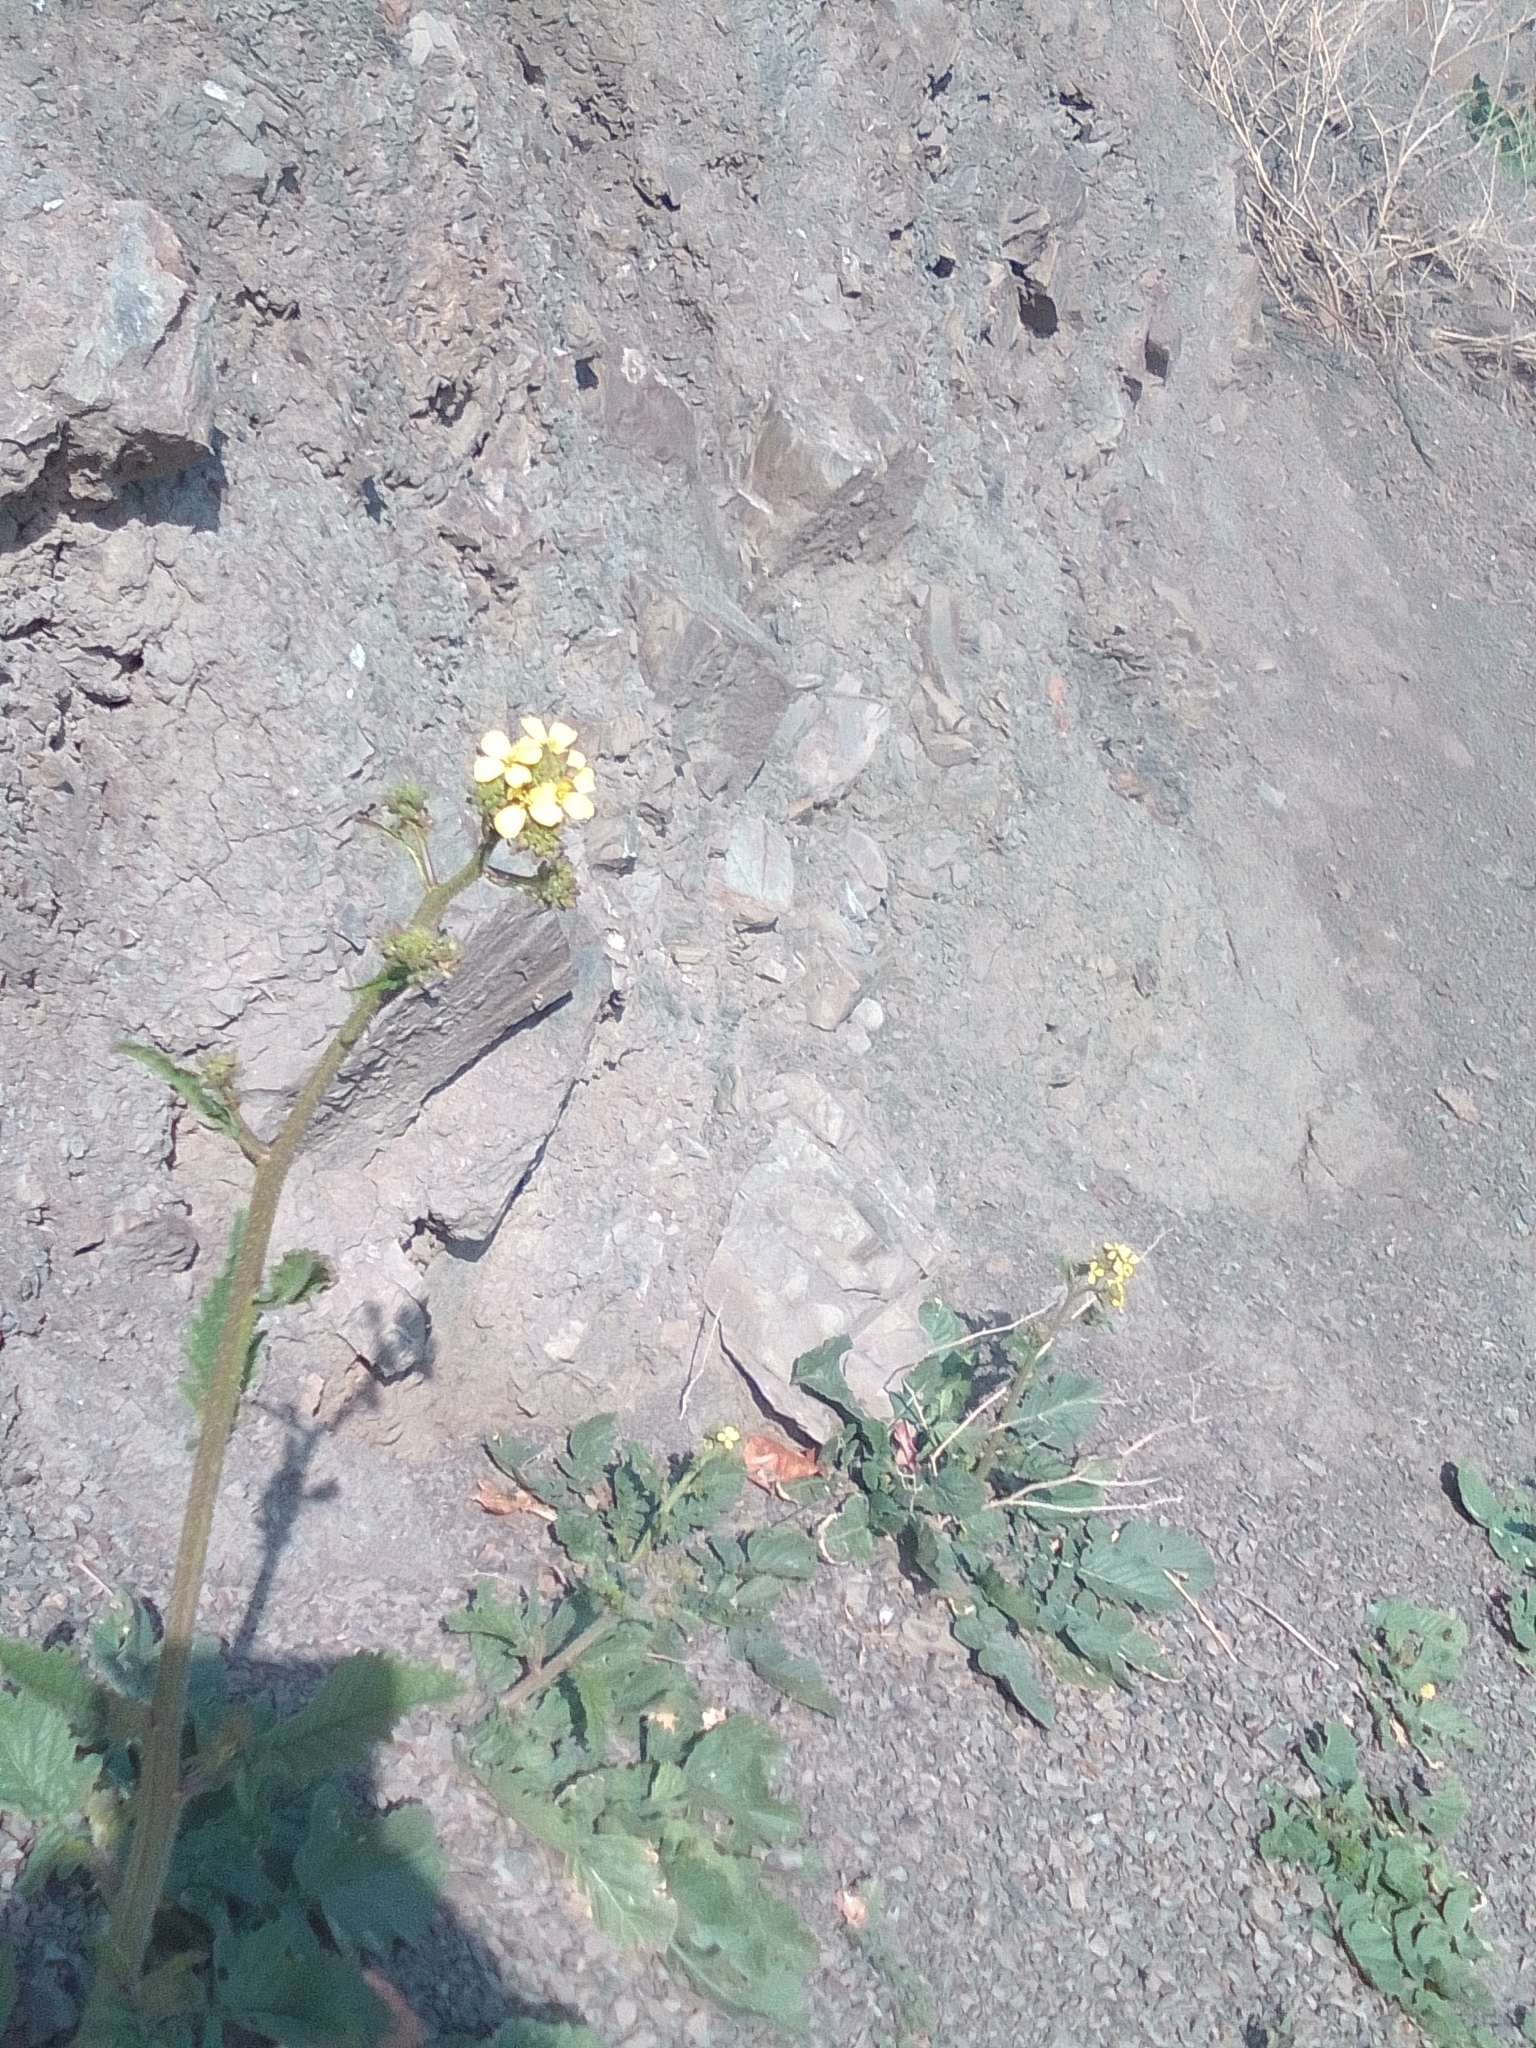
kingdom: Plantae
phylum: Tracheophyta
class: Magnoliopsida
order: Brassicales
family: Brassicaceae
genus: Rapistrum
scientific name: Rapistrum rugosum
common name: Annual bastardcabbage
